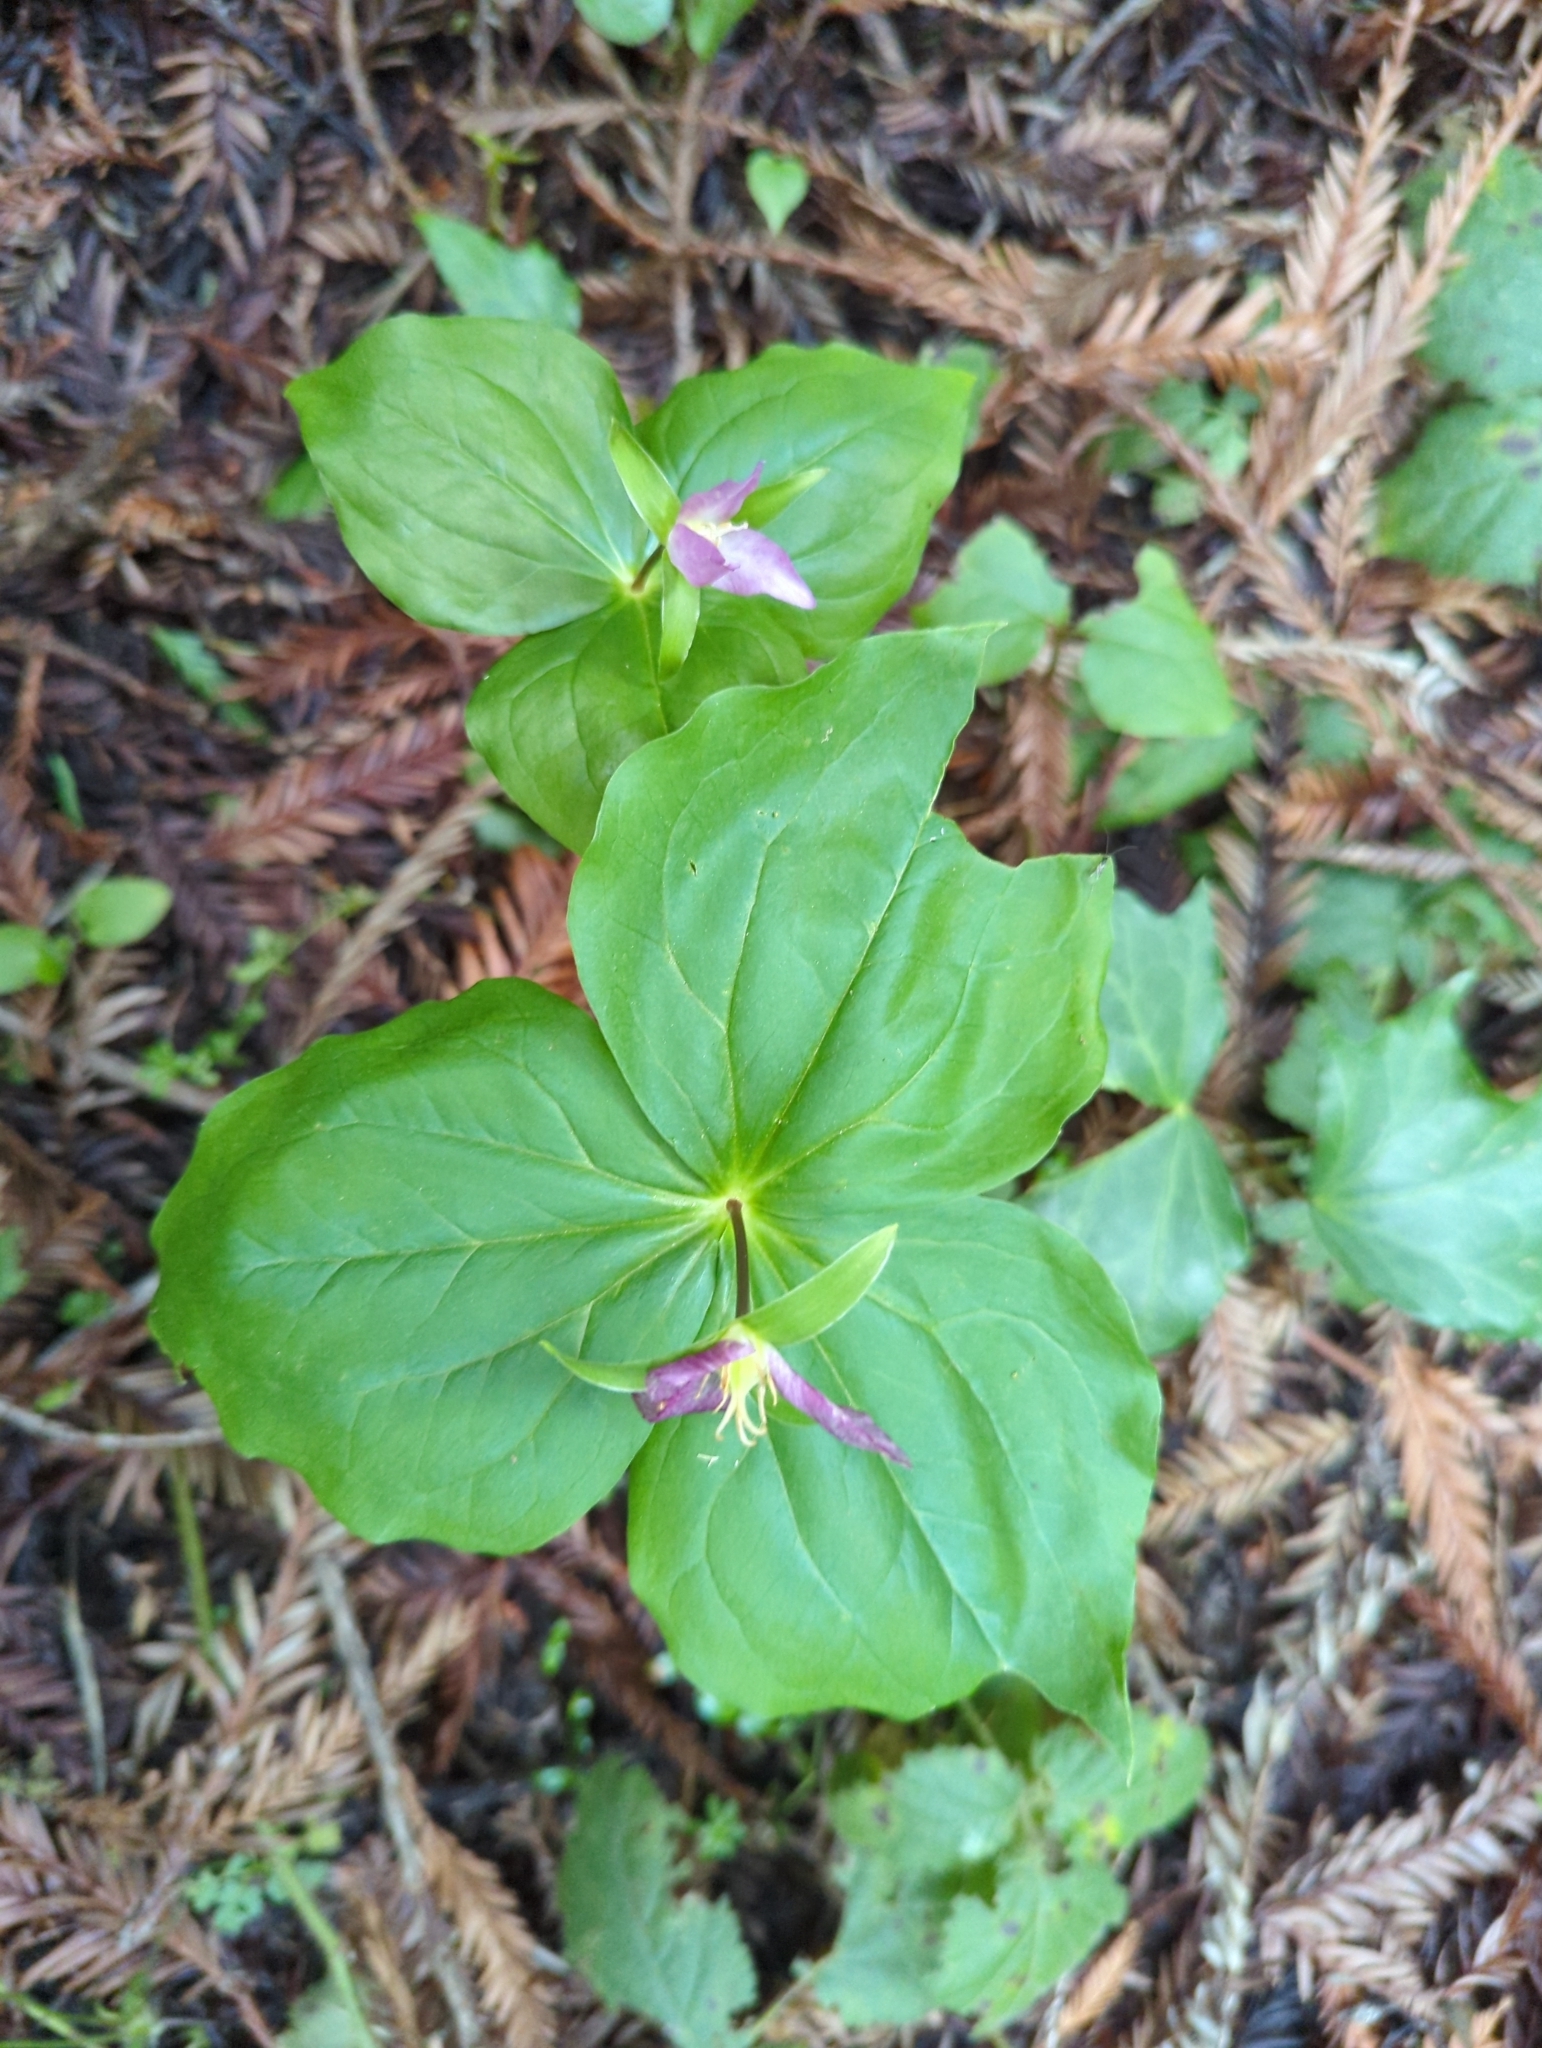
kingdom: Plantae
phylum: Tracheophyta
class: Liliopsida
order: Liliales
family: Melanthiaceae
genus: Trillium
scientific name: Trillium ovatum
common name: Pacific trillium
